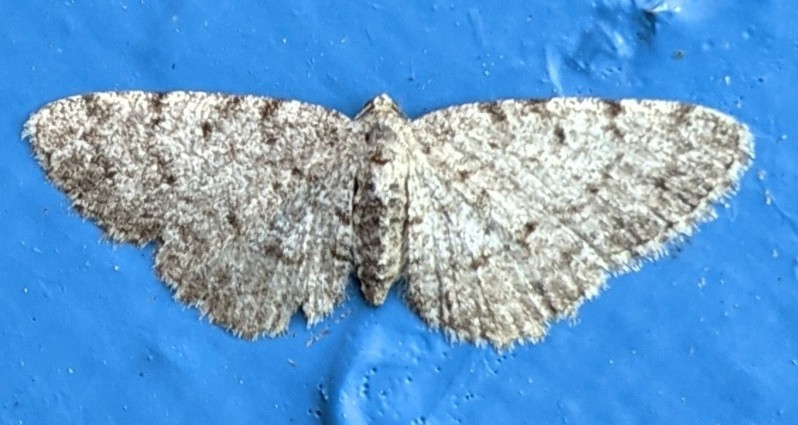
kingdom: Animalia
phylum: Arthropoda
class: Insecta
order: Lepidoptera
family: Geometridae
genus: Aethalura
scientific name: Aethalura intertexta
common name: Four-barred gray
